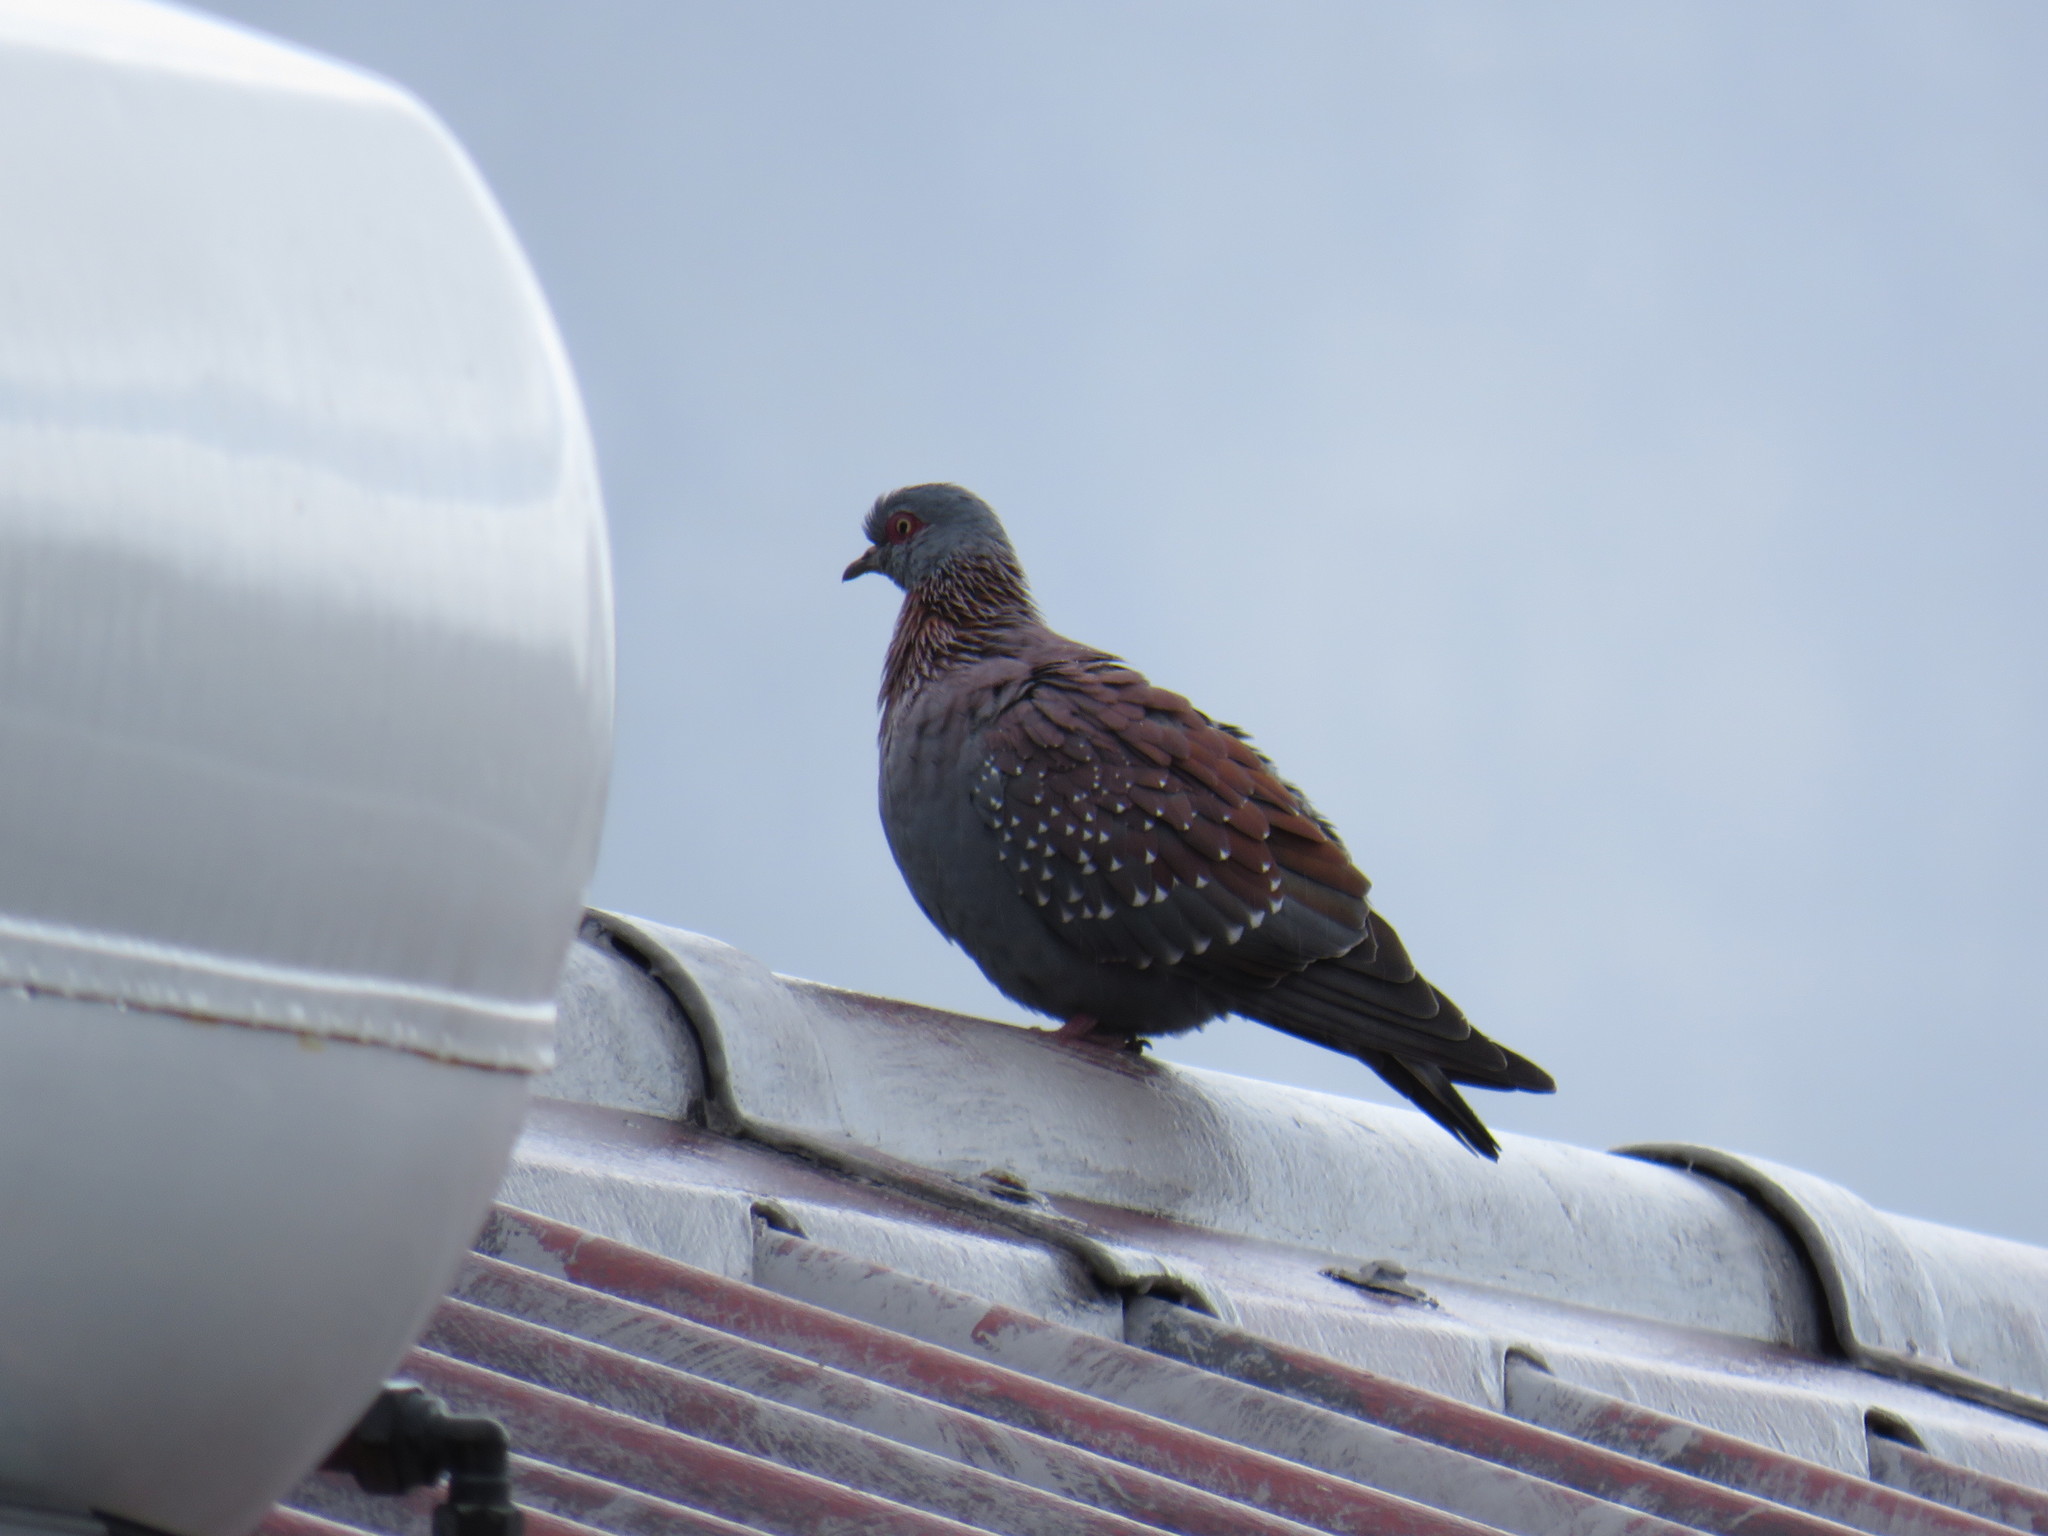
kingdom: Animalia
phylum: Chordata
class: Aves
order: Columbiformes
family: Columbidae
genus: Columba
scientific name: Columba guinea
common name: Speckled pigeon
